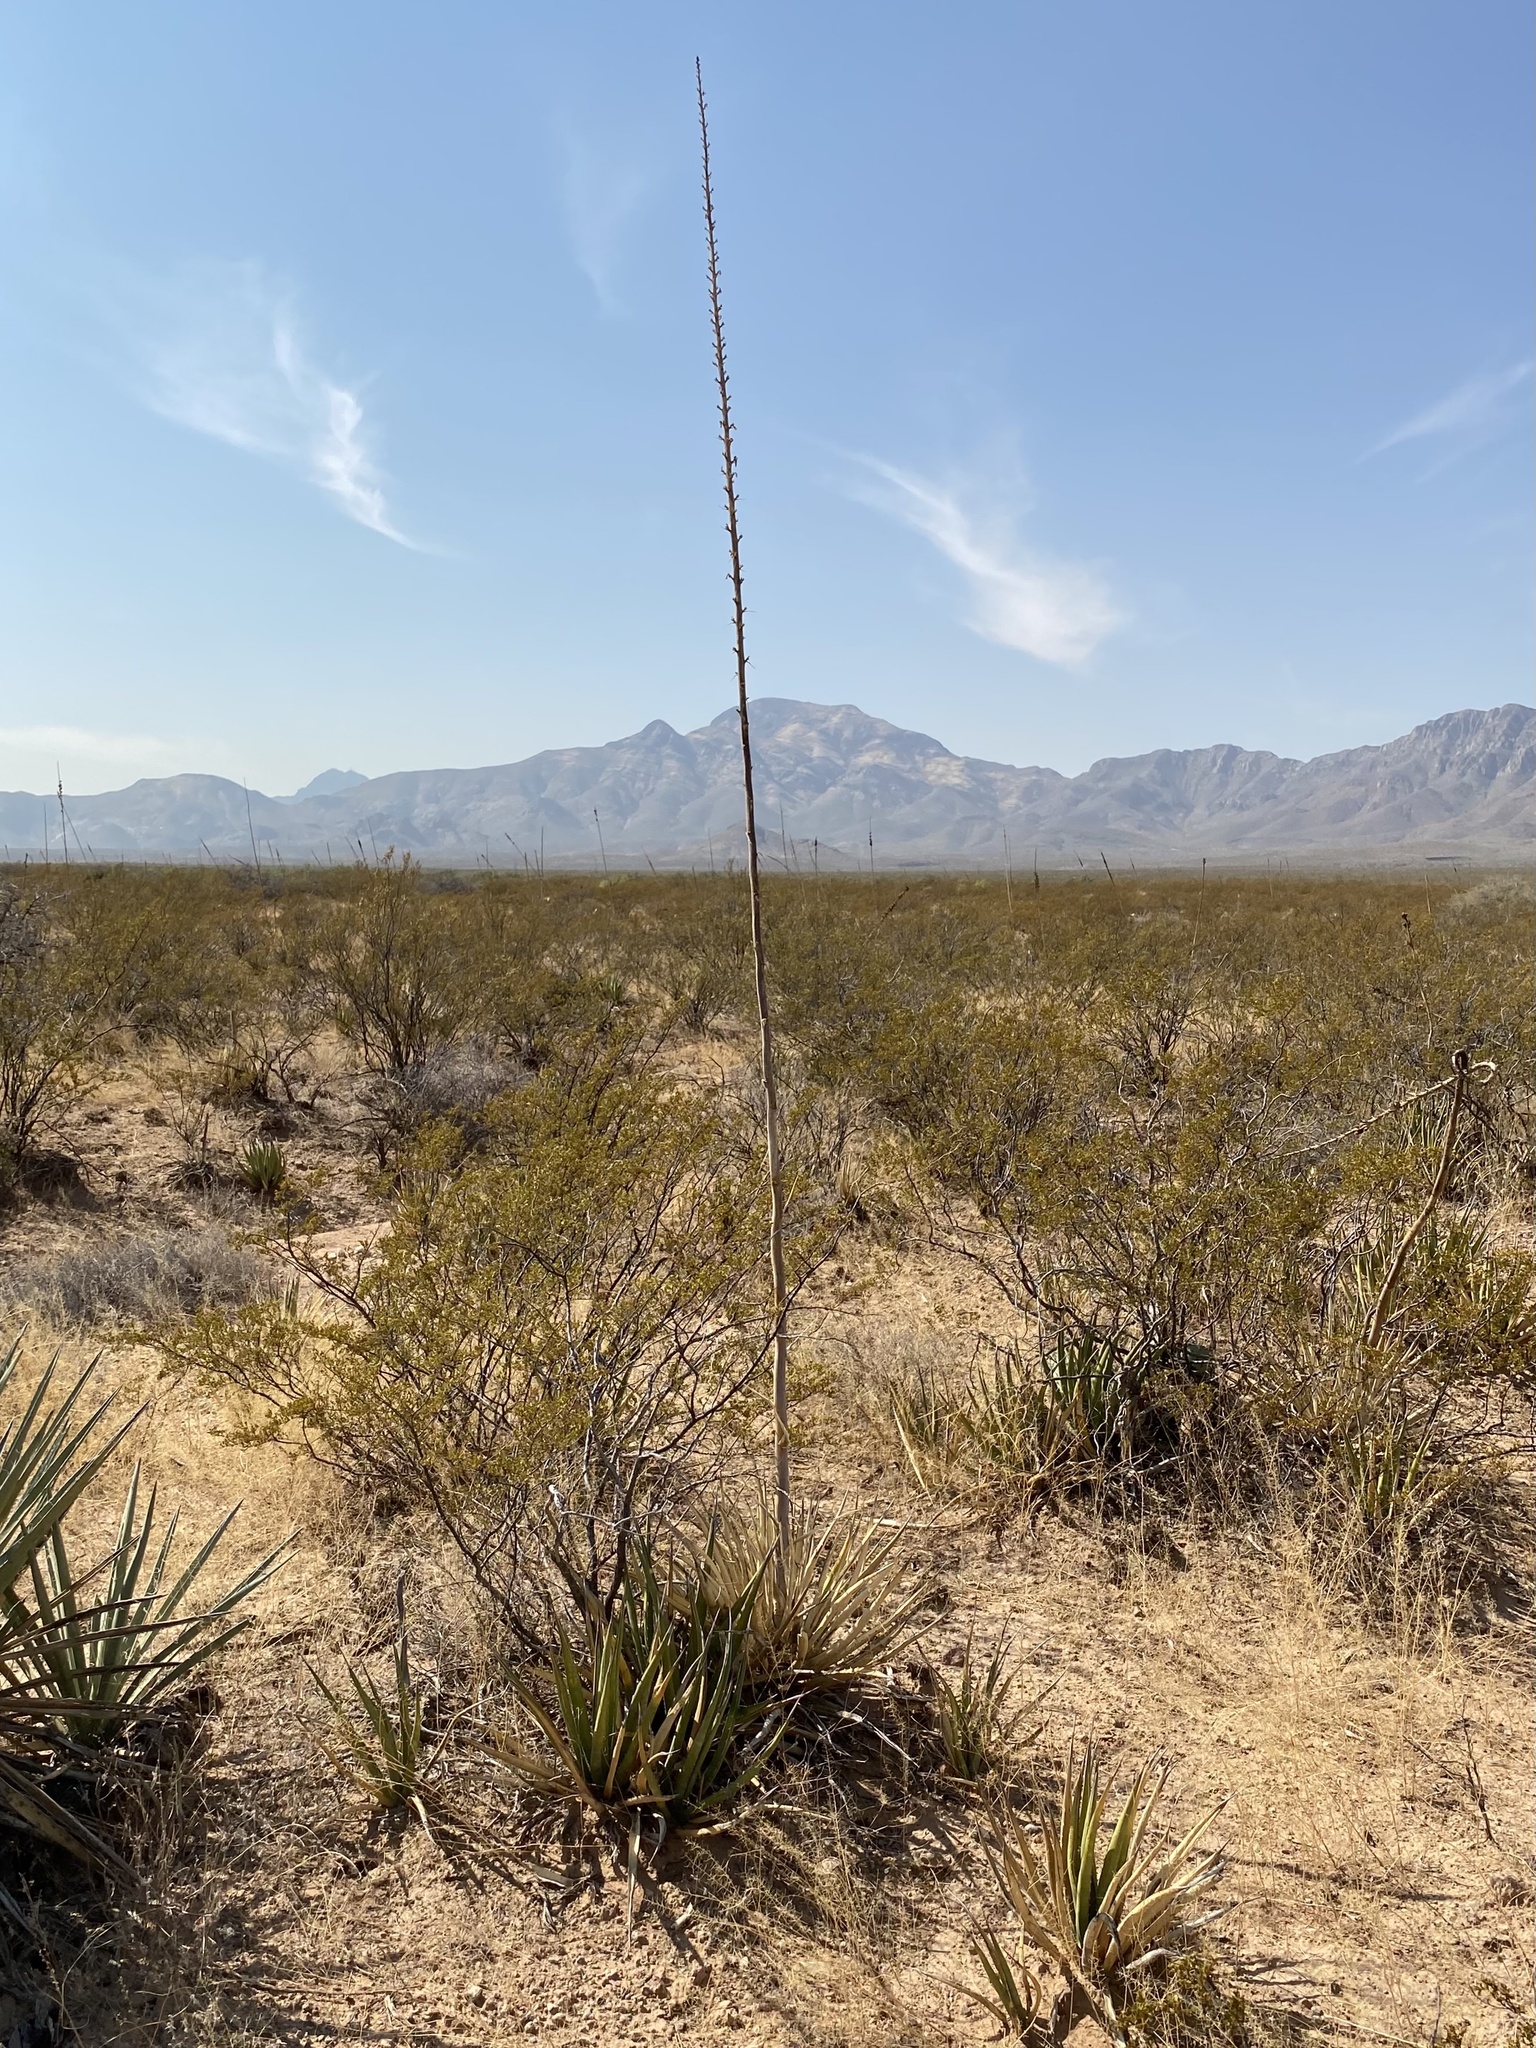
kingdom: Plantae
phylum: Tracheophyta
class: Liliopsida
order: Asparagales
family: Asparagaceae
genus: Agave
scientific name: Agave lechuguilla
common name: Lecheguilla agave
